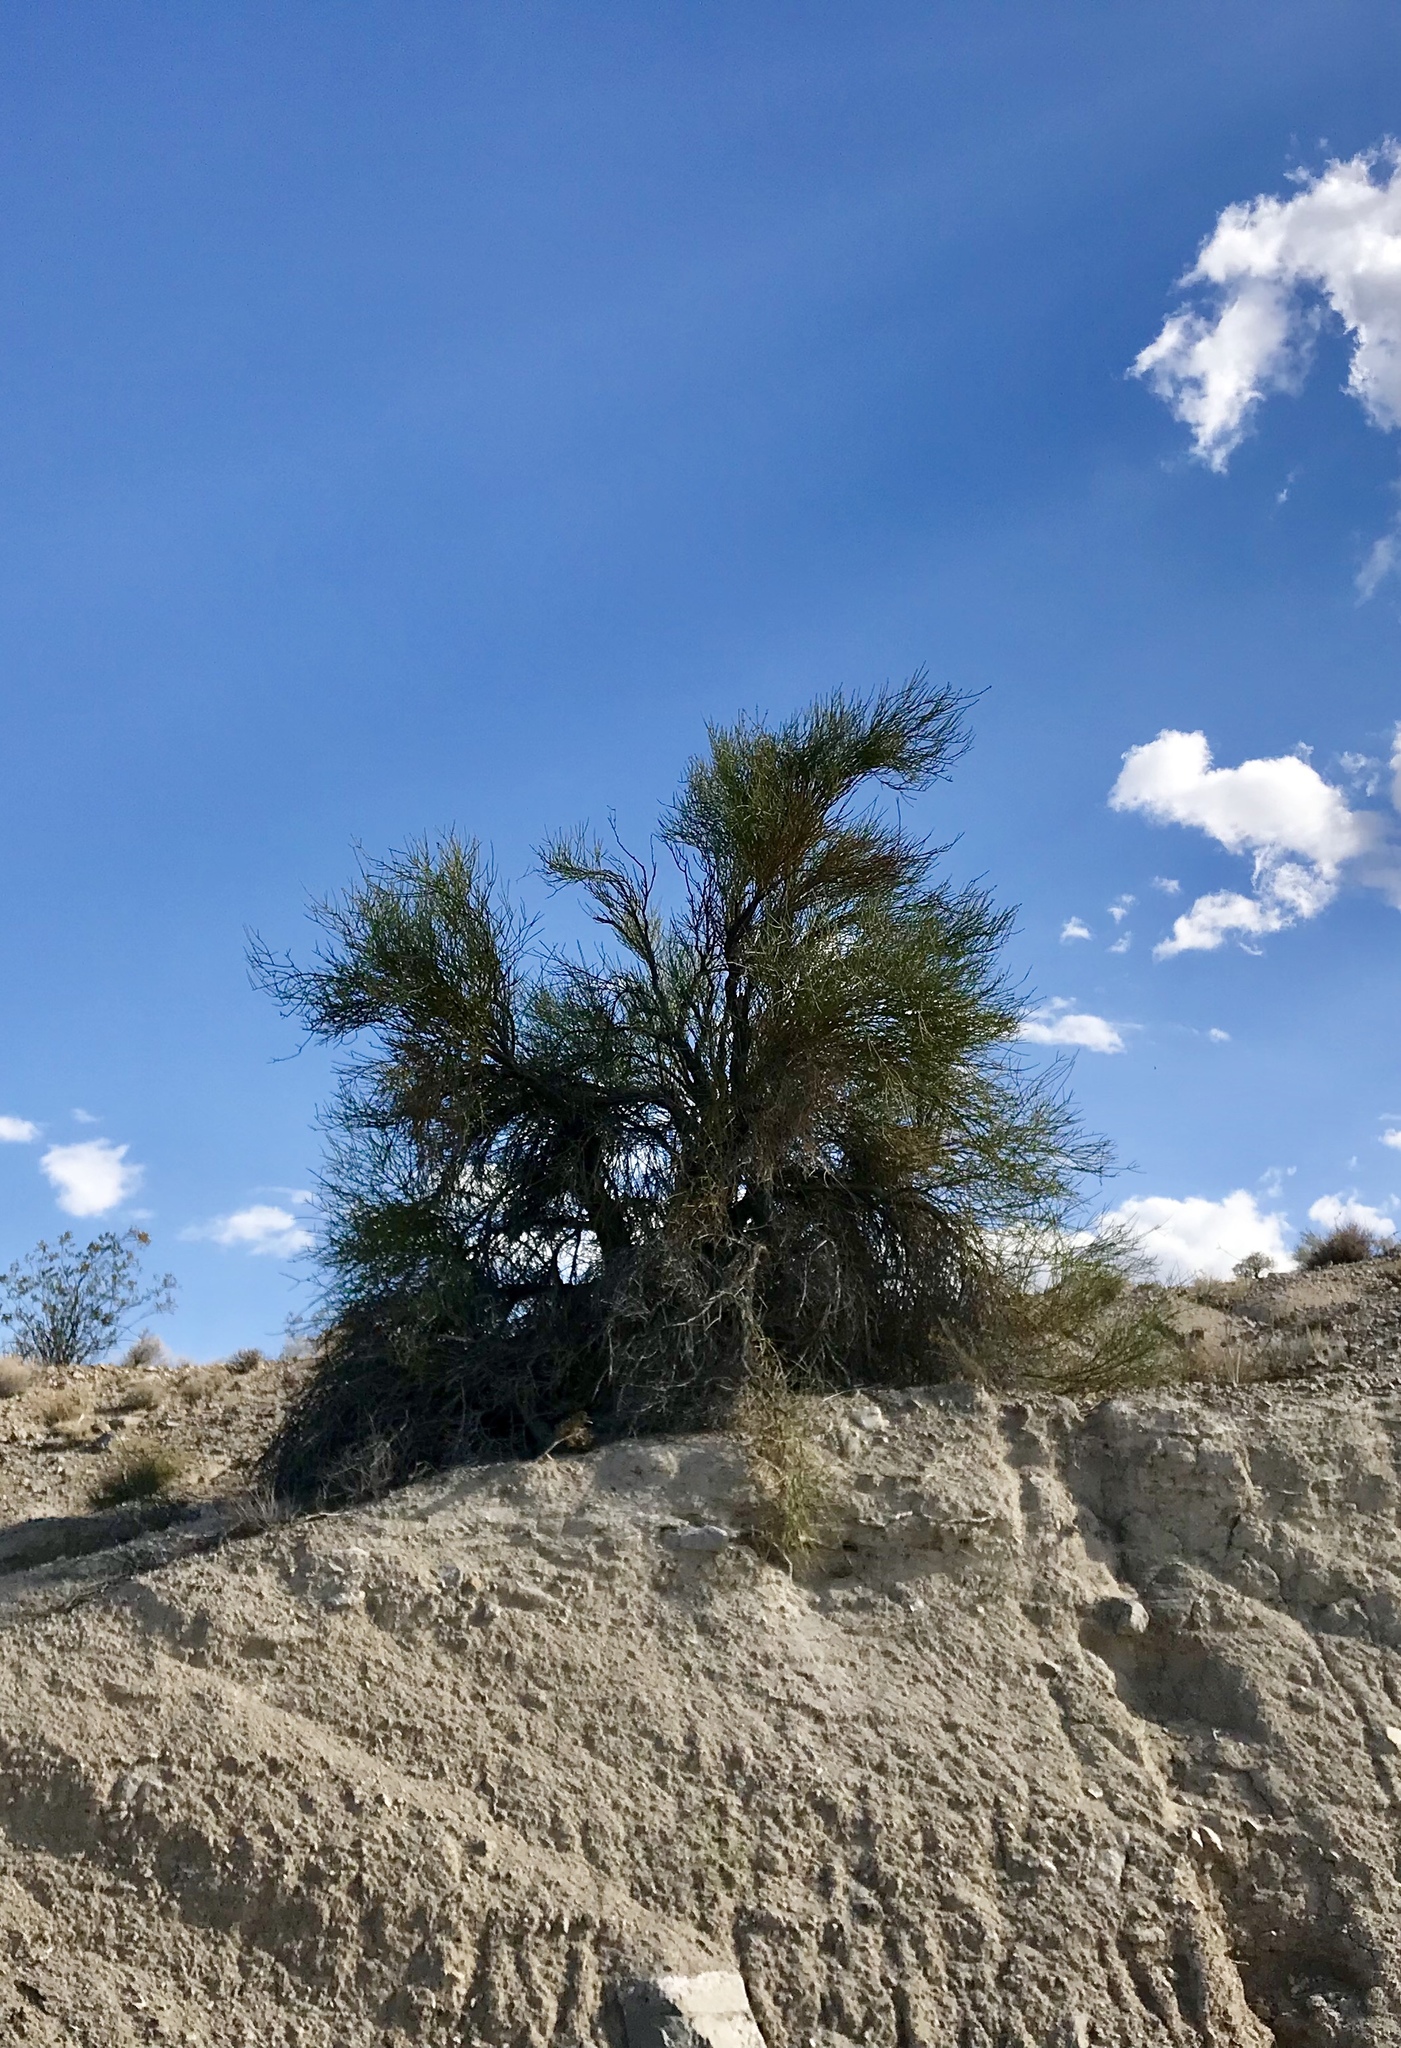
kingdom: Plantae
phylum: Tracheophyta
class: Magnoliopsida
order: Celastrales
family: Celastraceae
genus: Canotia
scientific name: Canotia holacantha
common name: Crucifixion thorns
